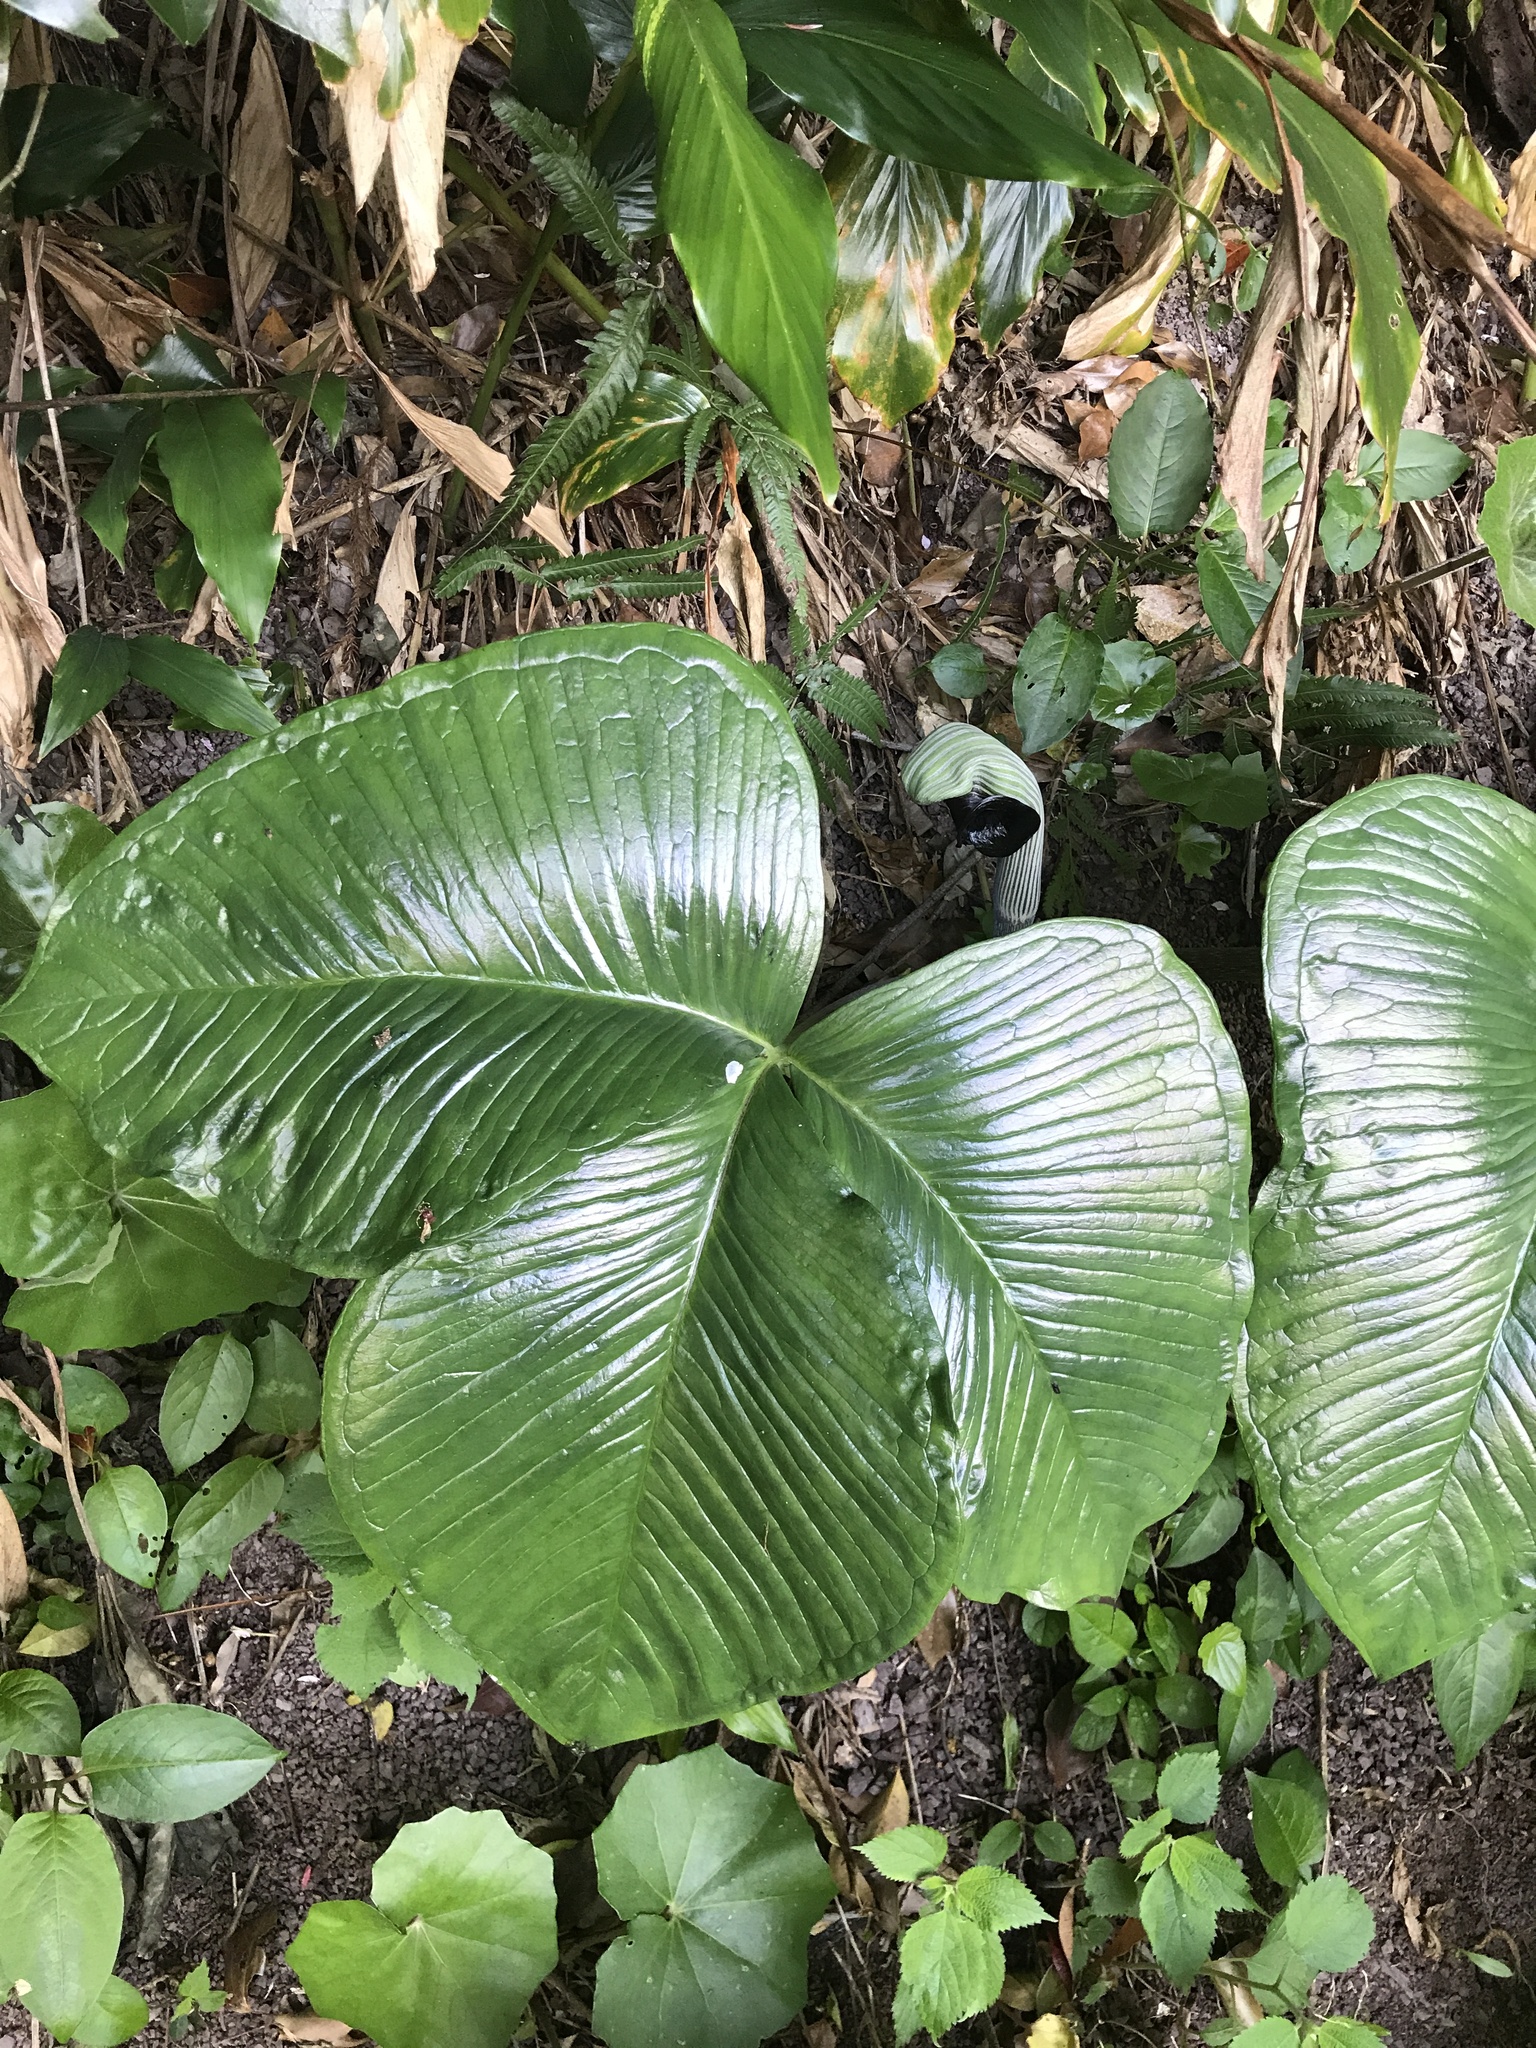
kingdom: Plantae
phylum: Tracheophyta
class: Liliopsida
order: Alismatales
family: Araceae
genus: Arisaema
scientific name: Arisaema ringens
